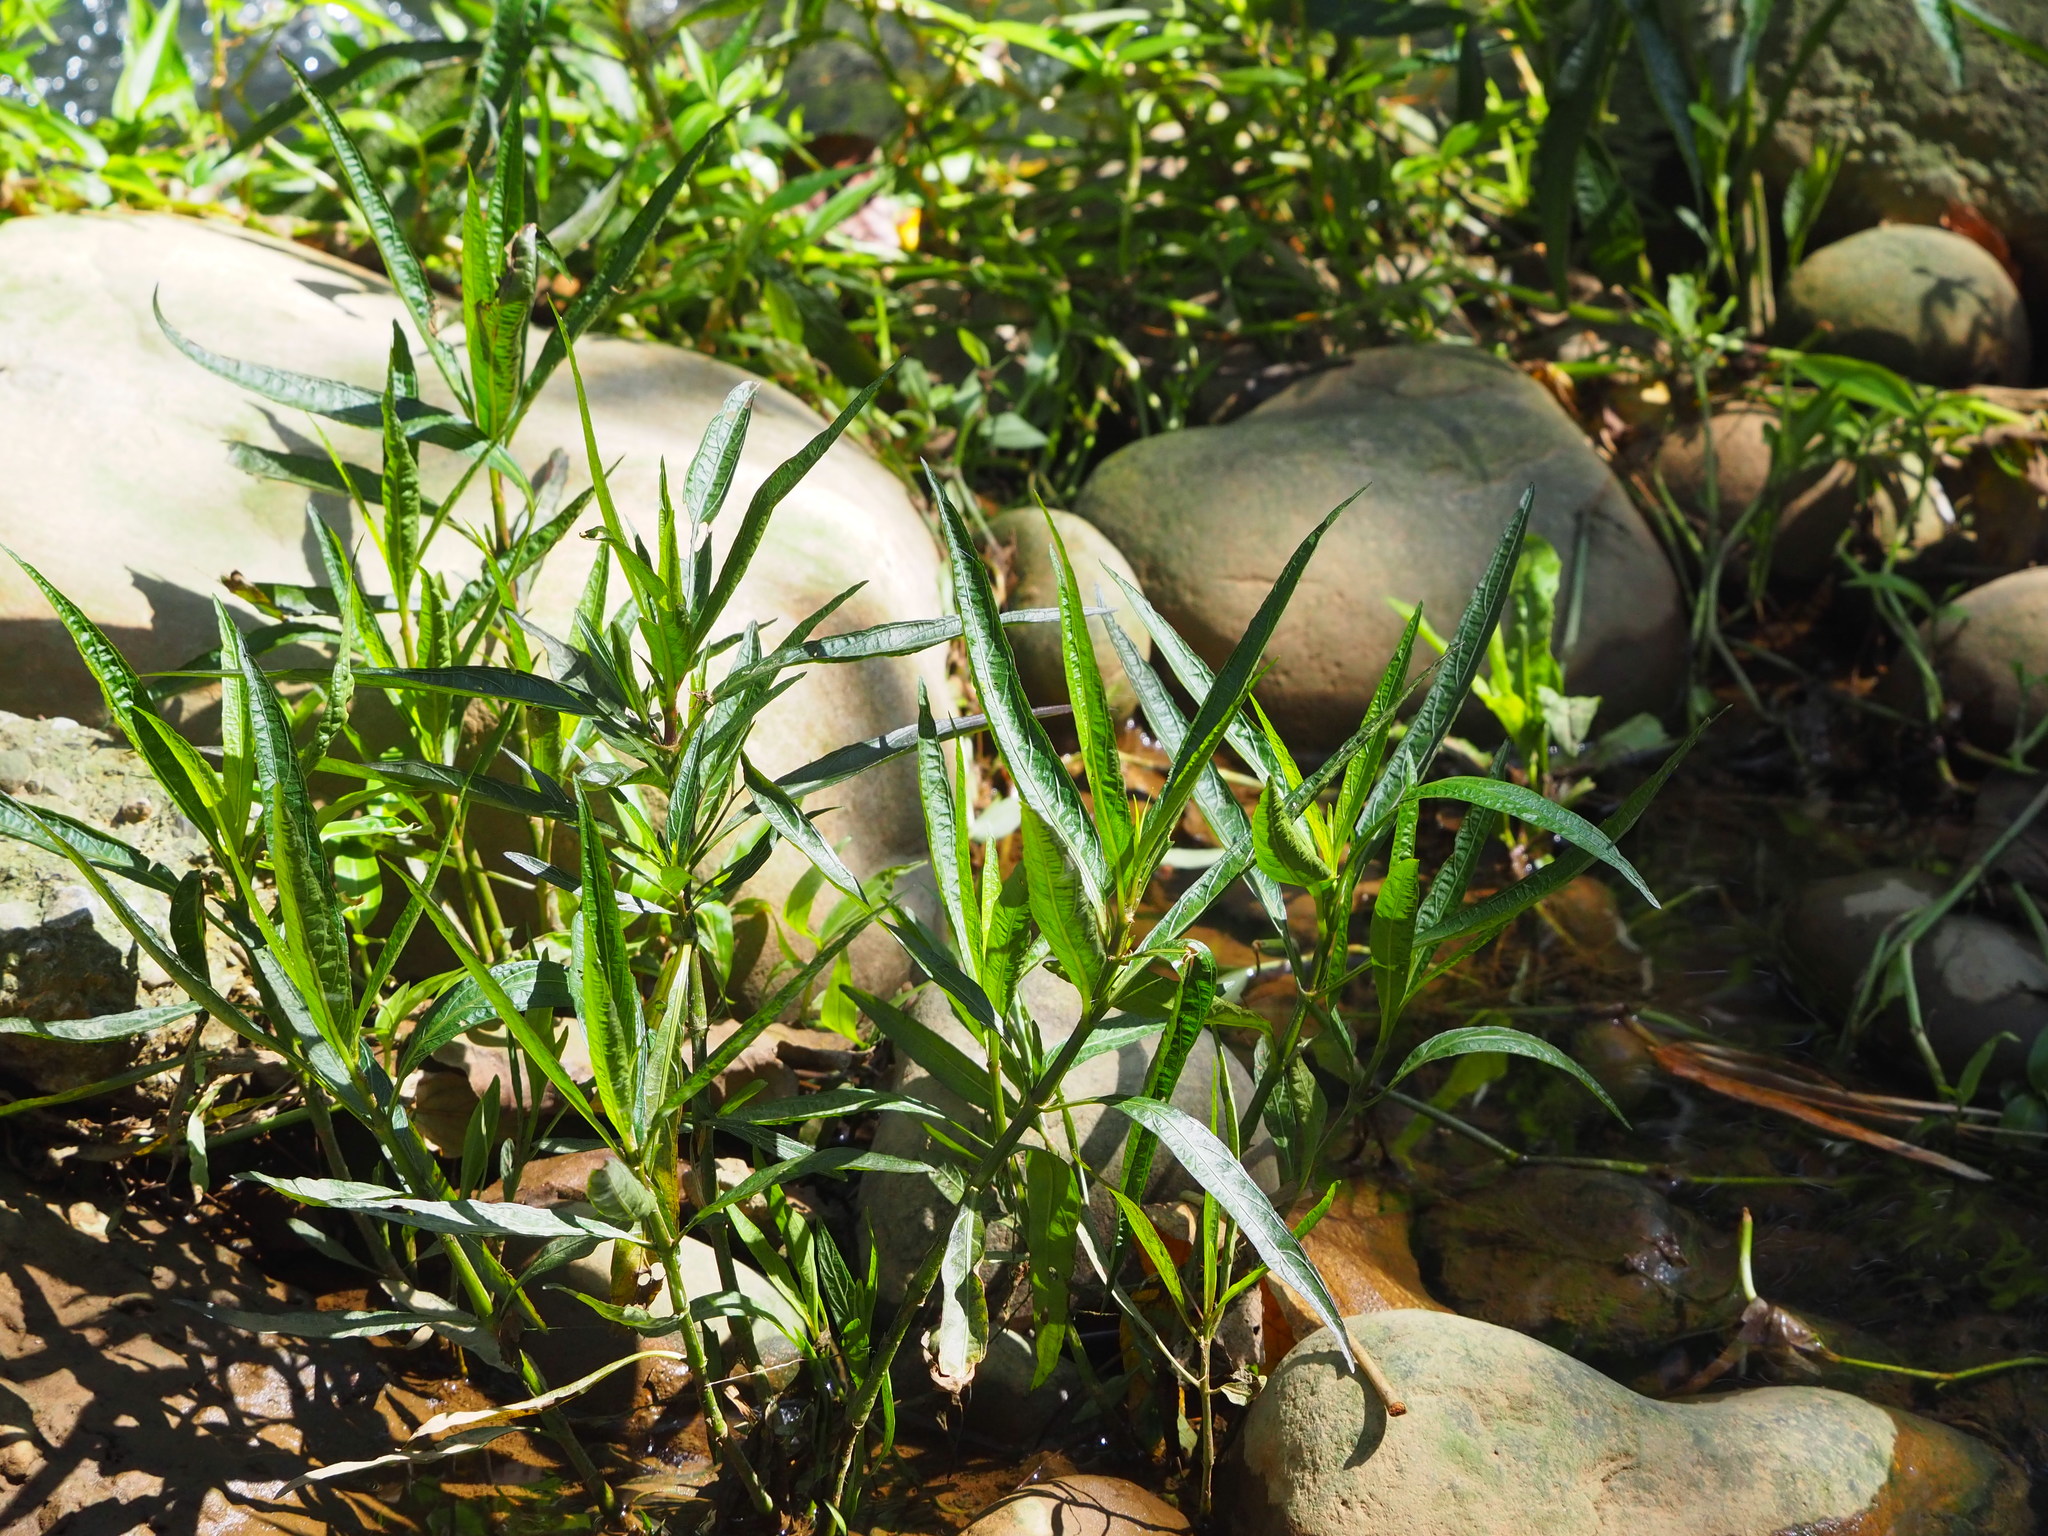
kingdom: Plantae
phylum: Tracheophyta
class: Magnoliopsida
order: Lamiales
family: Acanthaceae
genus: Ruellia
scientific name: Ruellia simplex
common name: Softseed wild petunia
